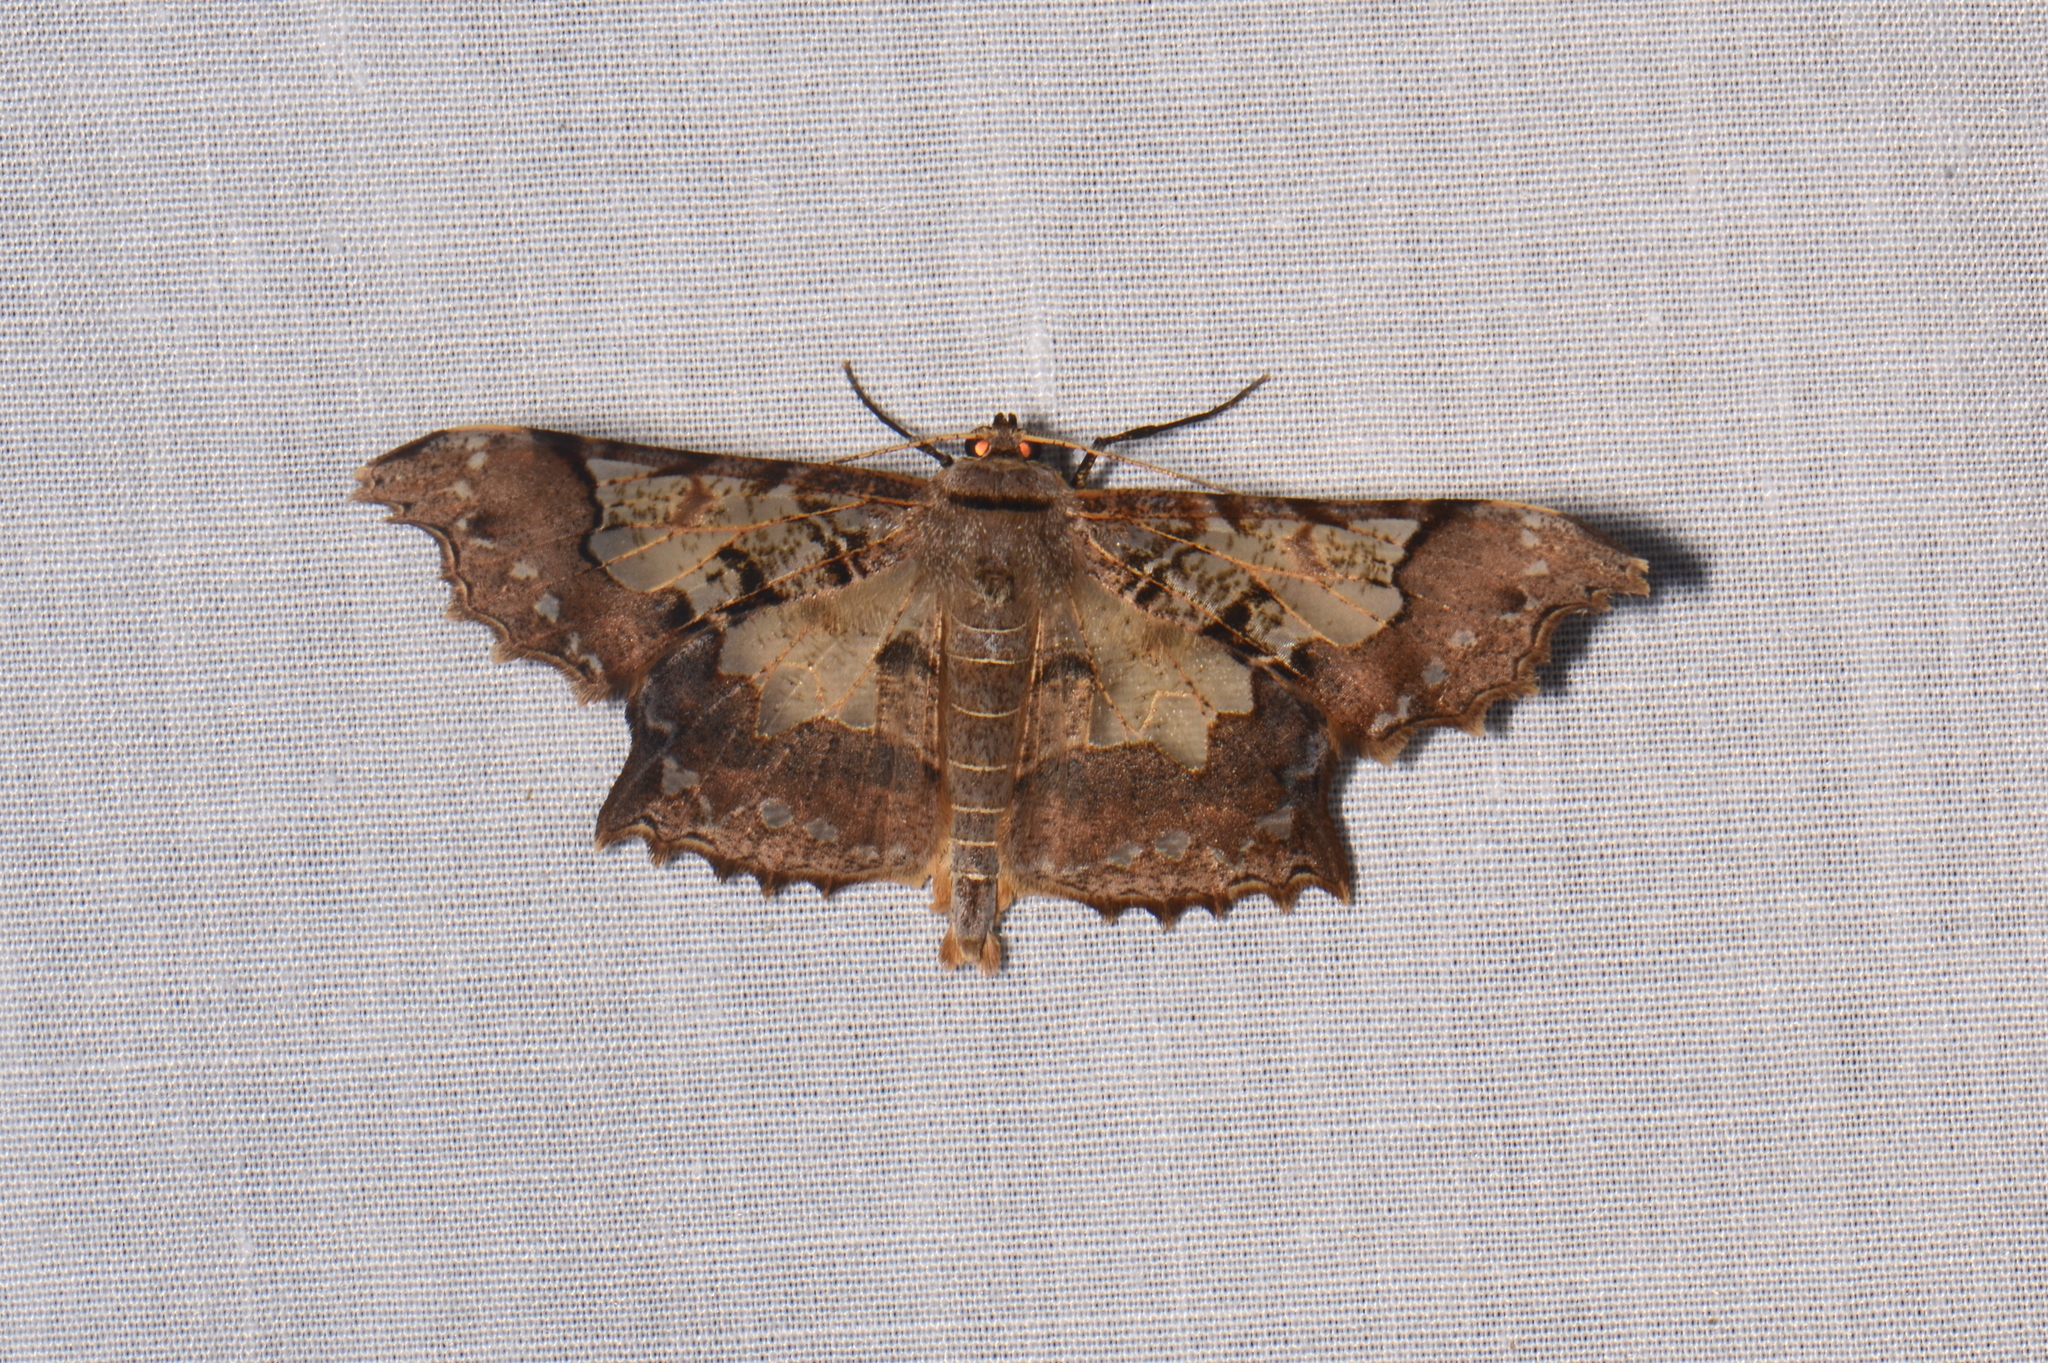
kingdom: Animalia
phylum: Arthropoda
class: Insecta
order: Lepidoptera
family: Geometridae
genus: Krananda
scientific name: Krananda semihyalina
